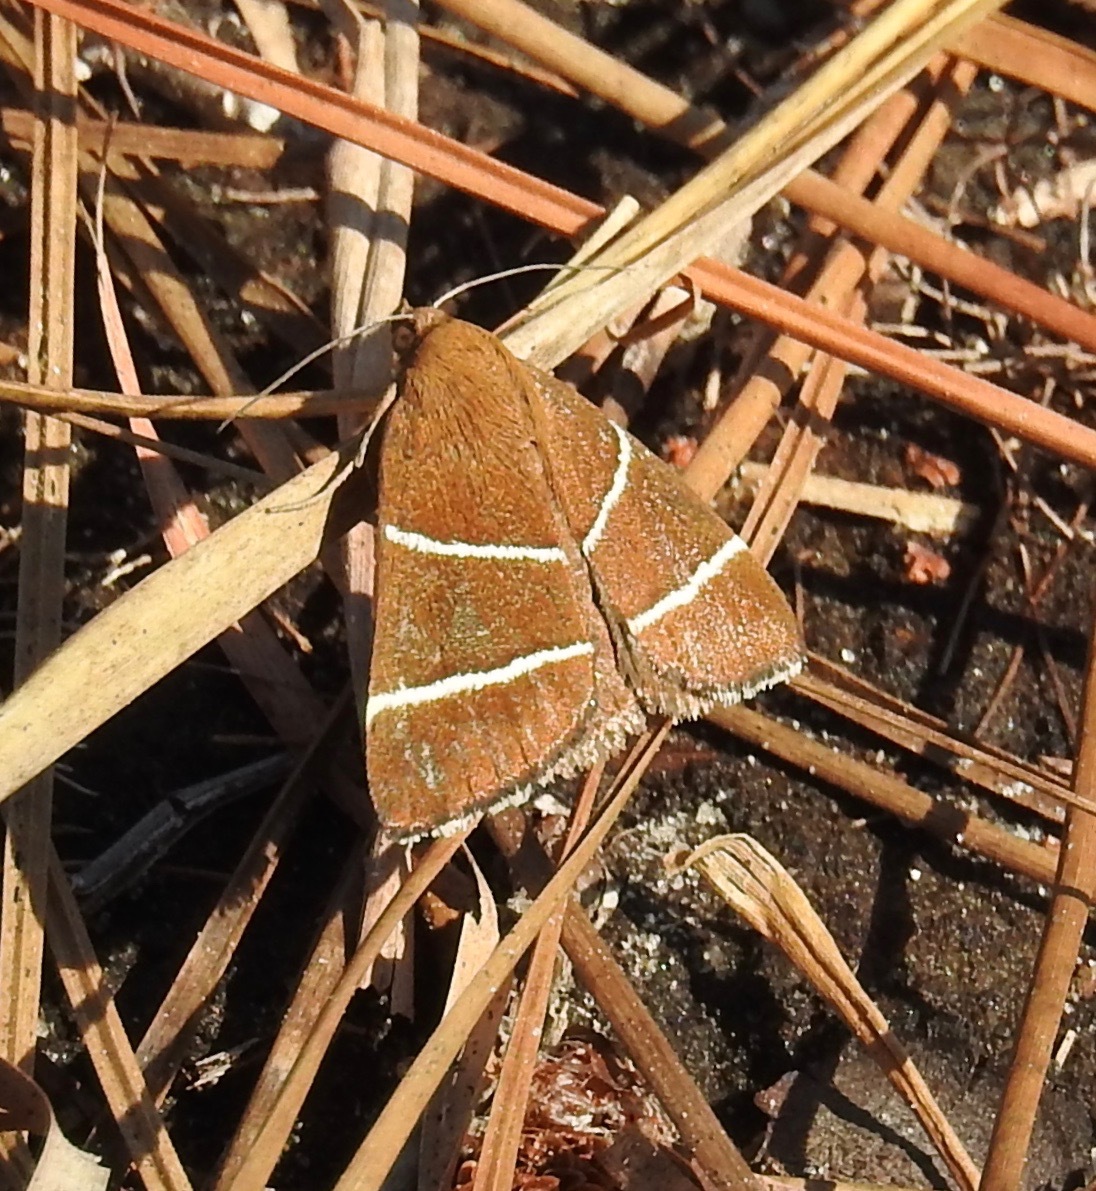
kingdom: Animalia
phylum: Arthropoda
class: Insecta
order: Lepidoptera
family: Erebidae
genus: Argyrostrotis
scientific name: Argyrostrotis quadrifilaris
